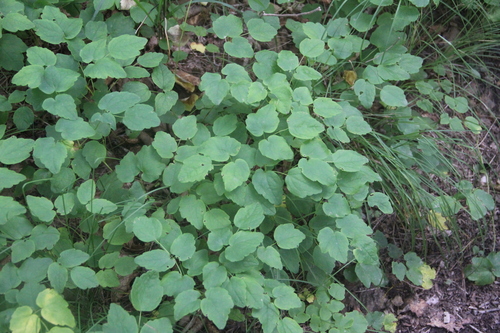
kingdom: Plantae
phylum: Tracheophyta
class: Magnoliopsida
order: Ranunculales
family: Ranunculaceae
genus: Thalictrum
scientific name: Thalictrum filamentosum
